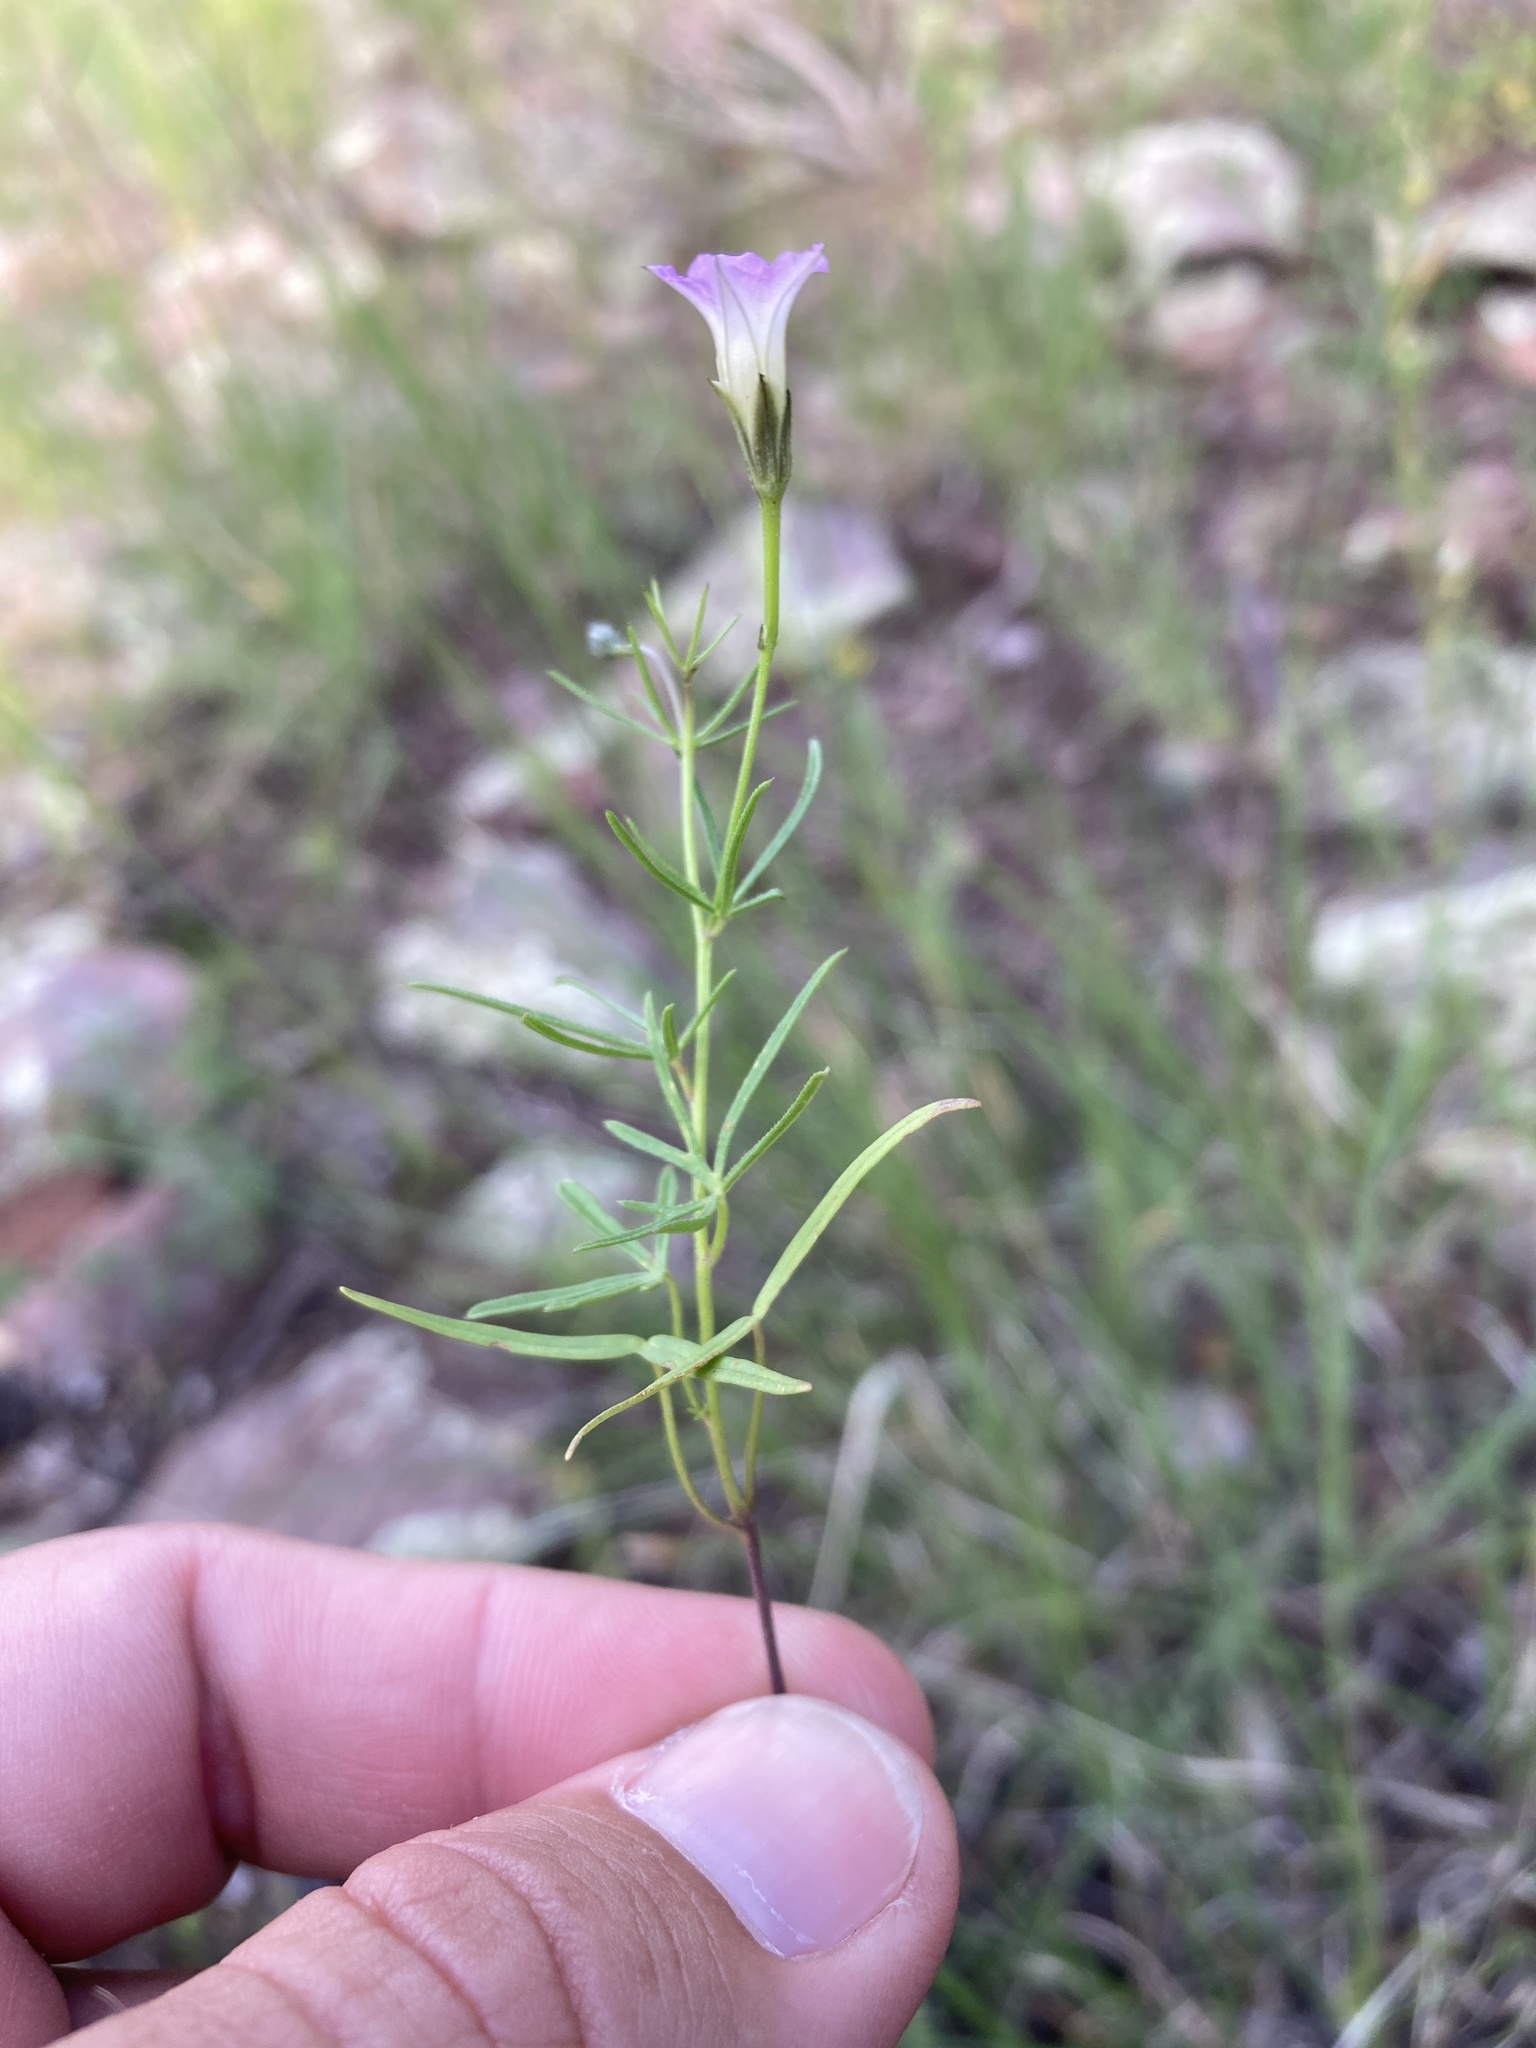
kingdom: Plantae
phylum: Tracheophyta
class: Magnoliopsida
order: Solanales
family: Convolvulaceae
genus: Ipomoea
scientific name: Ipomoea costellata
